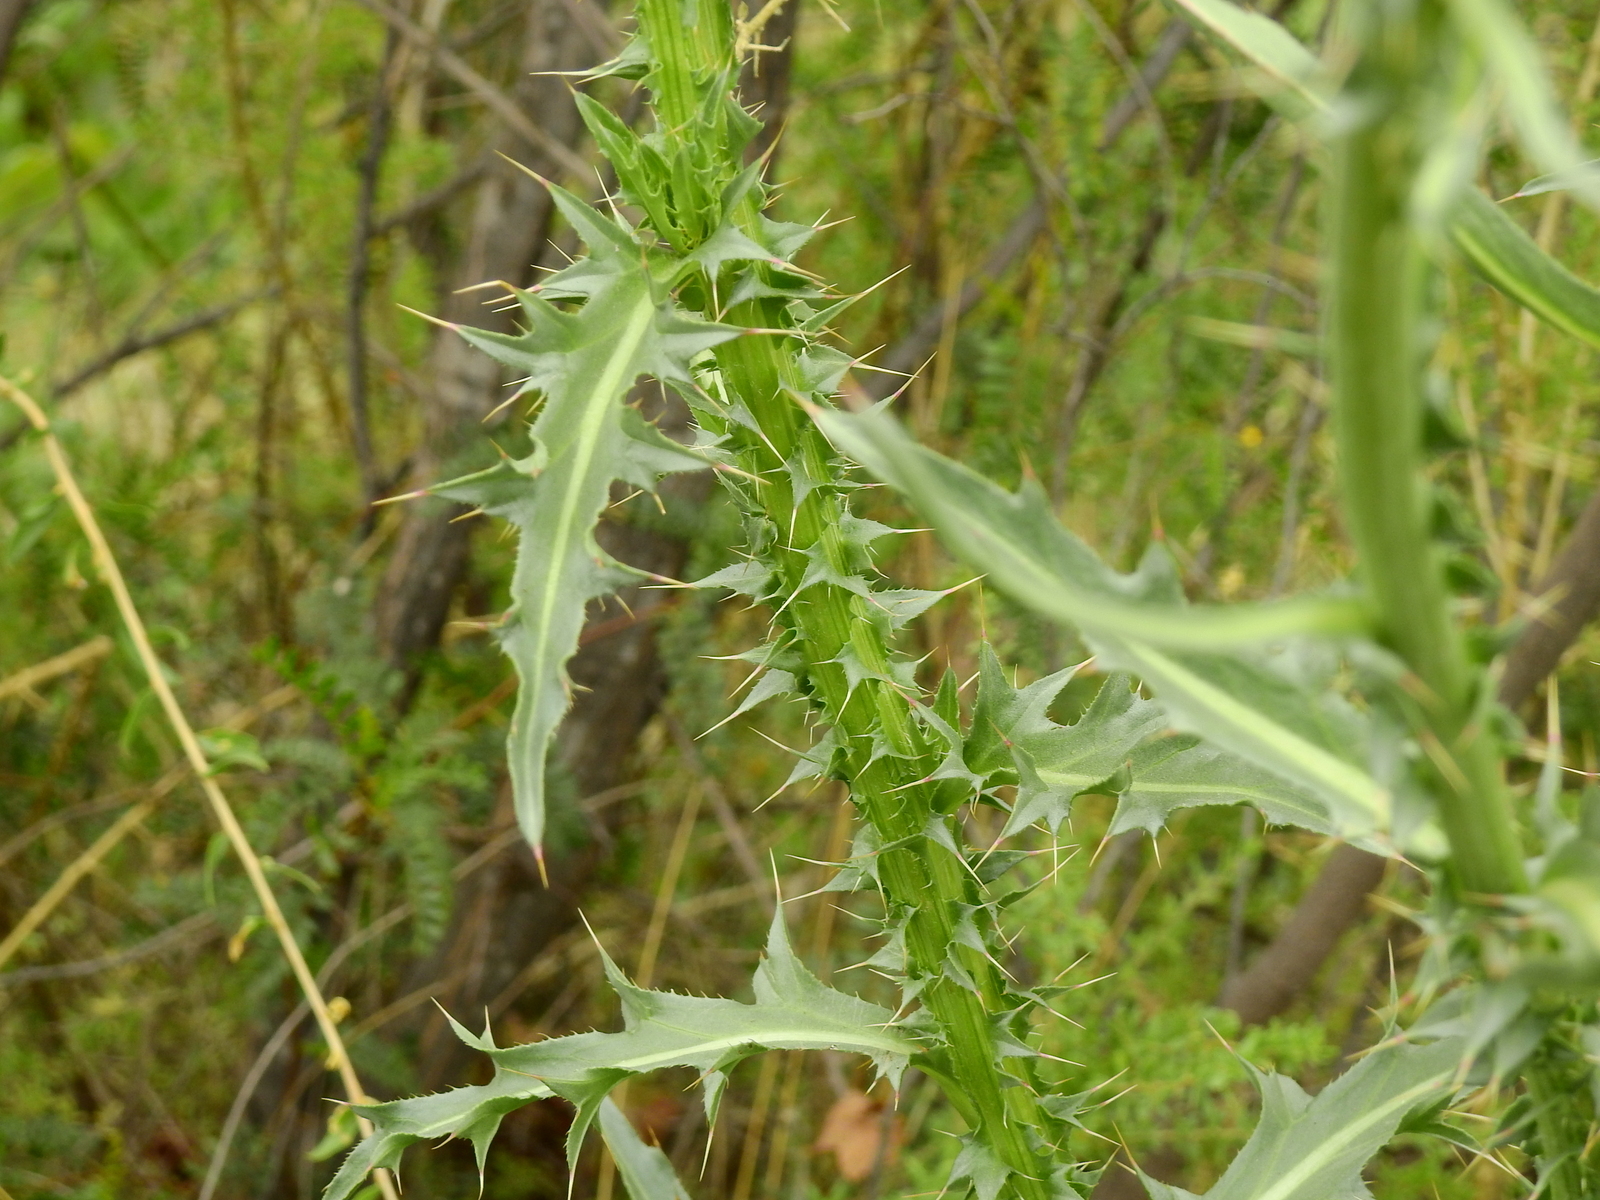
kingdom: Plantae
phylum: Tracheophyta
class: Magnoliopsida
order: Asterales
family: Asteraceae
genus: Carduus
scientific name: Carduus nutans
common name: Musk thistle
